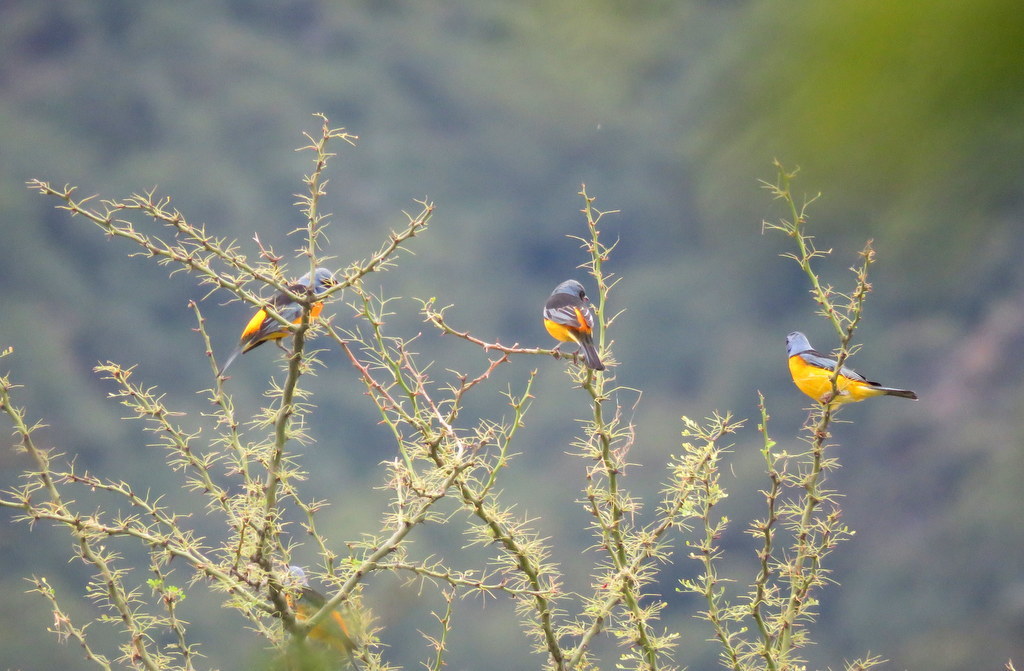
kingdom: Animalia
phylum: Chordata
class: Aves
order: Passeriformes
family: Thraupidae
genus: Rauenia
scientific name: Rauenia bonariensis
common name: Blue-and-yellow tanager
